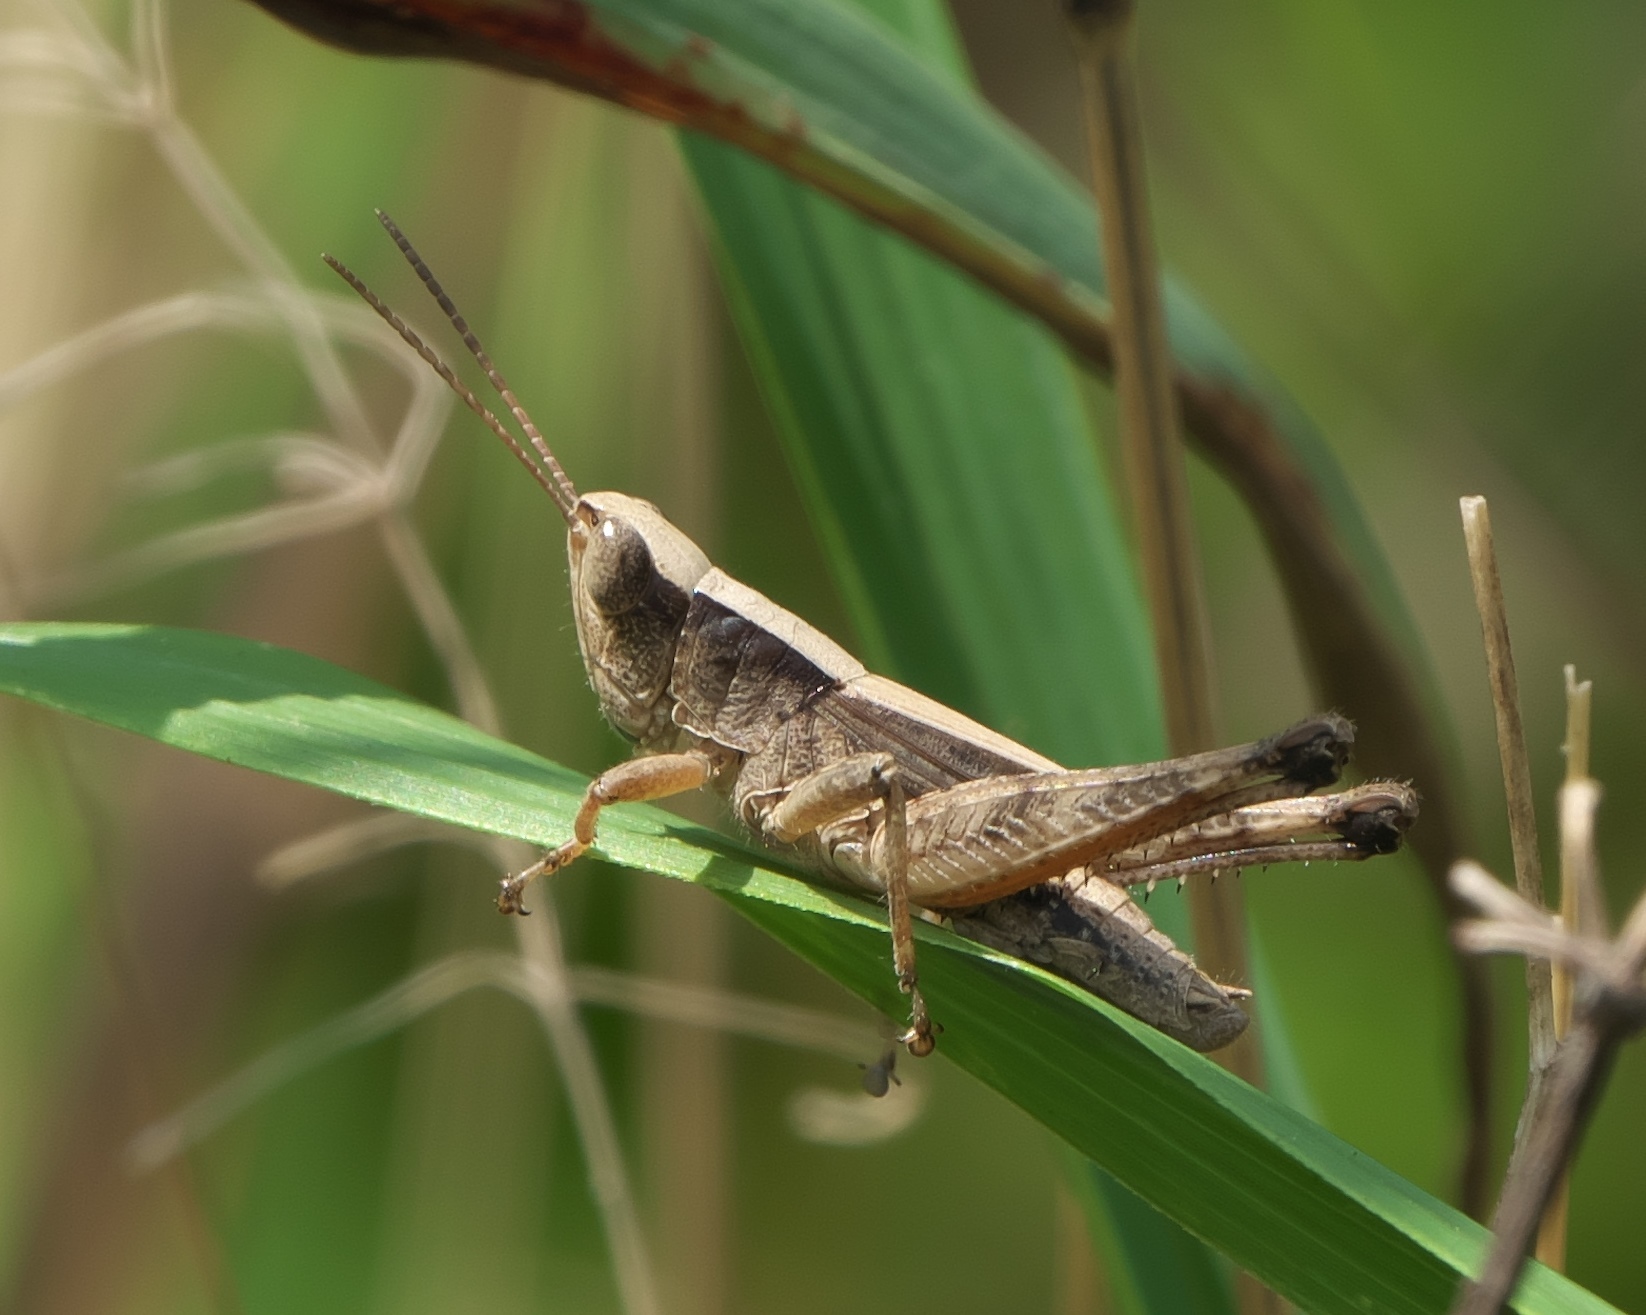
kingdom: Animalia
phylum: Arthropoda
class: Insecta
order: Orthoptera
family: Acrididae
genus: Dichromorpha
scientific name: Dichromorpha viridis
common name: Short-winged green grasshopper
